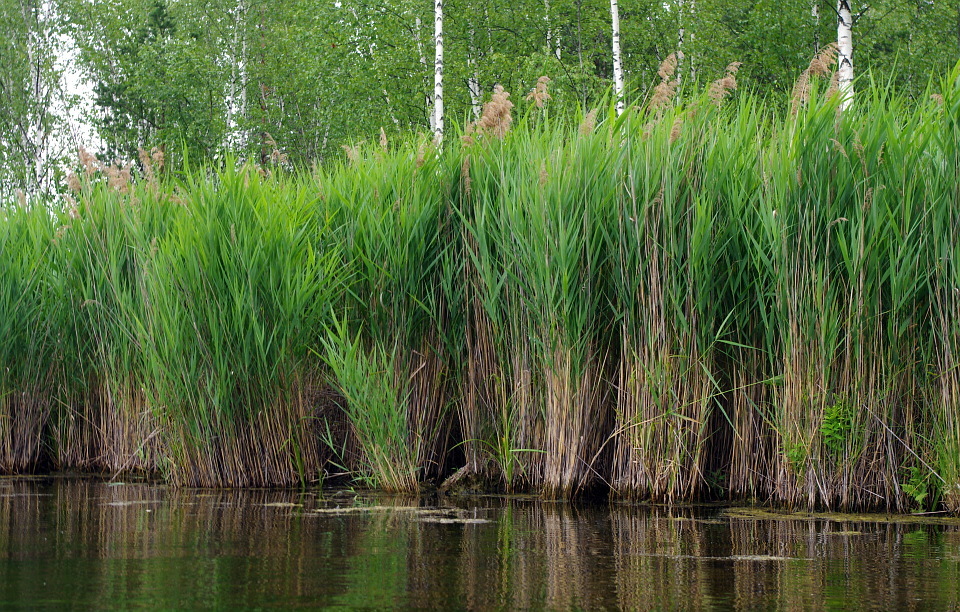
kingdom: Plantae
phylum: Tracheophyta
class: Liliopsida
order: Poales
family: Poaceae
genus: Phragmites
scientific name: Phragmites australis
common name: Common reed
